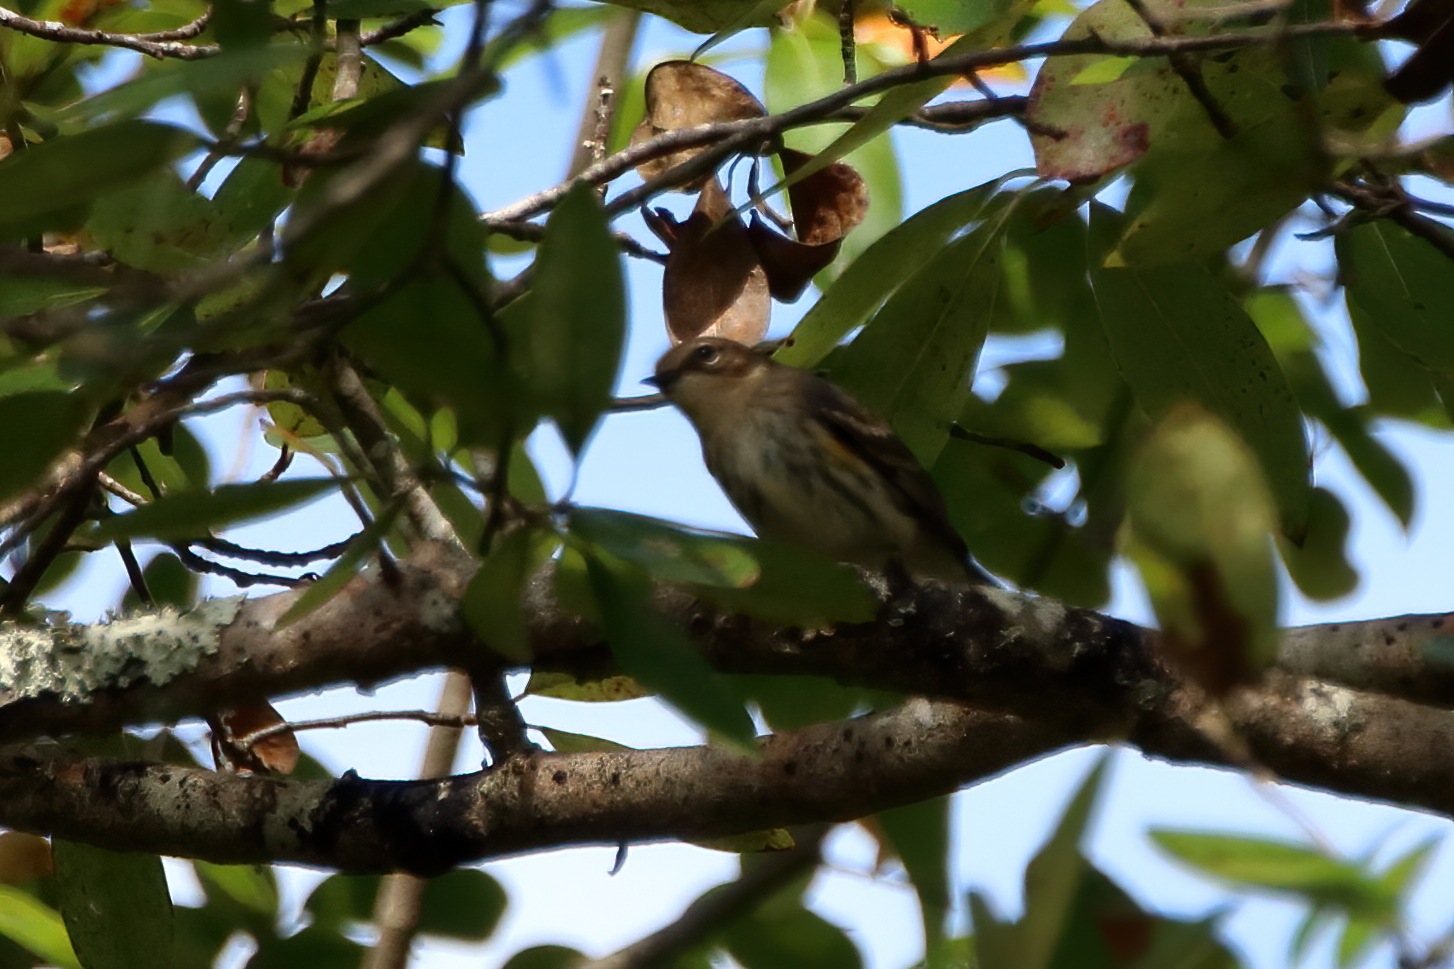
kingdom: Animalia
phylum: Chordata
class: Aves
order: Passeriformes
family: Parulidae
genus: Setophaga
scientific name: Setophaga coronata
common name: Myrtle warbler
